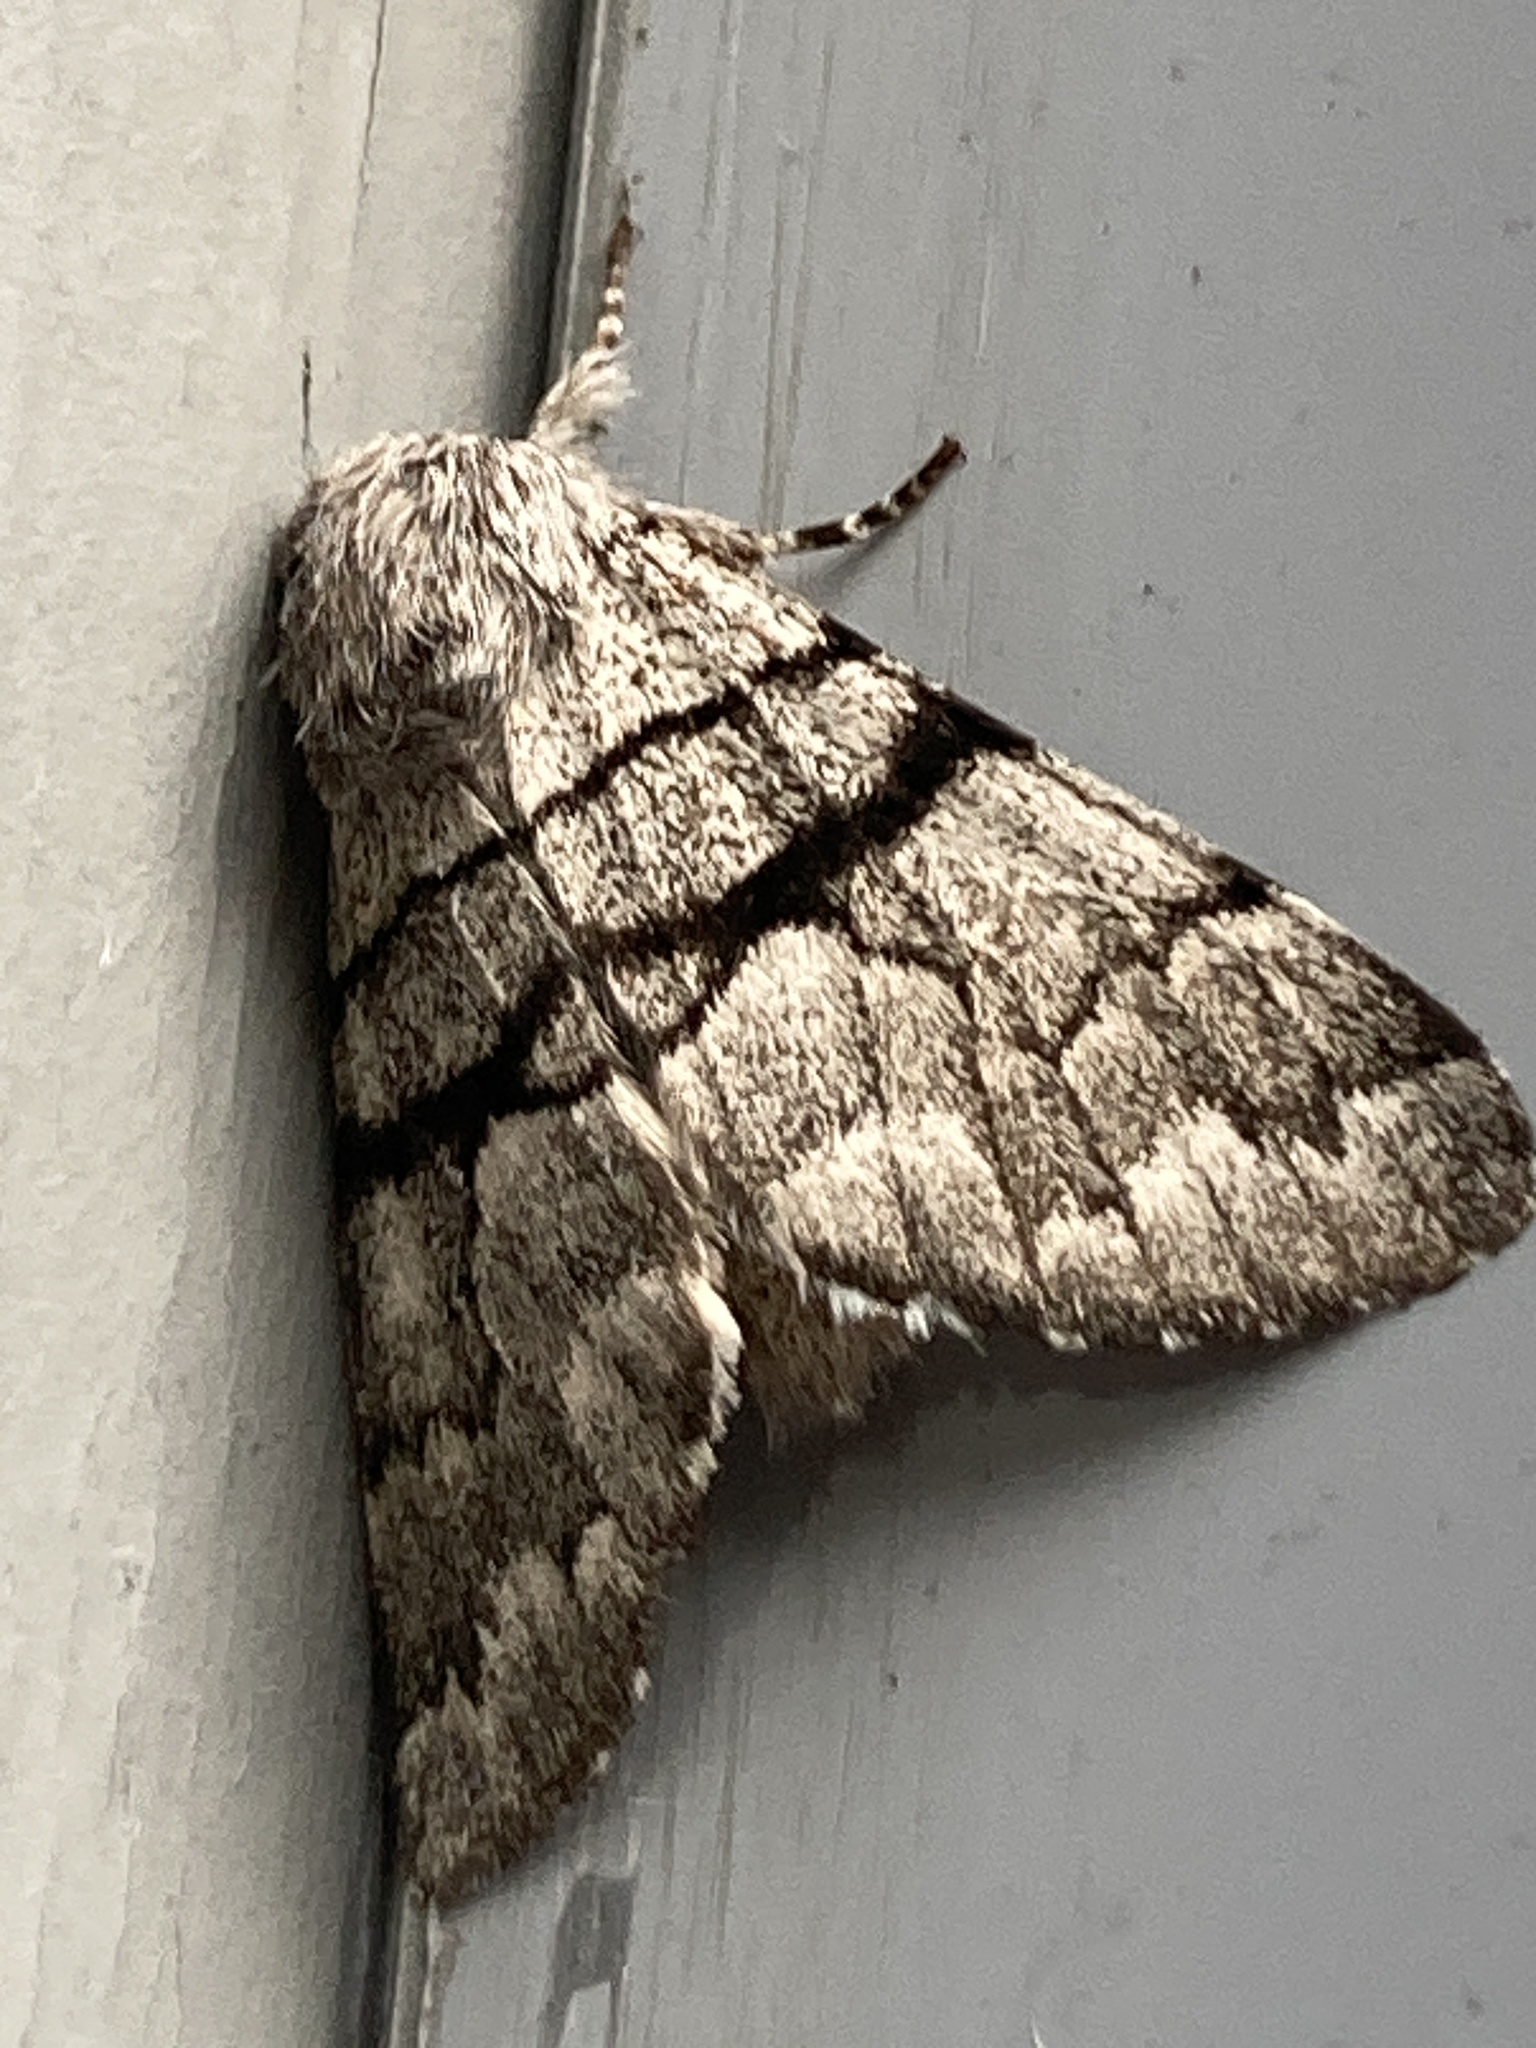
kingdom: Animalia
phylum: Arthropoda
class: Insecta
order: Lepidoptera
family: Noctuidae
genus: Panthea
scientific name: Panthea furcilla
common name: Eastern panthea moth
